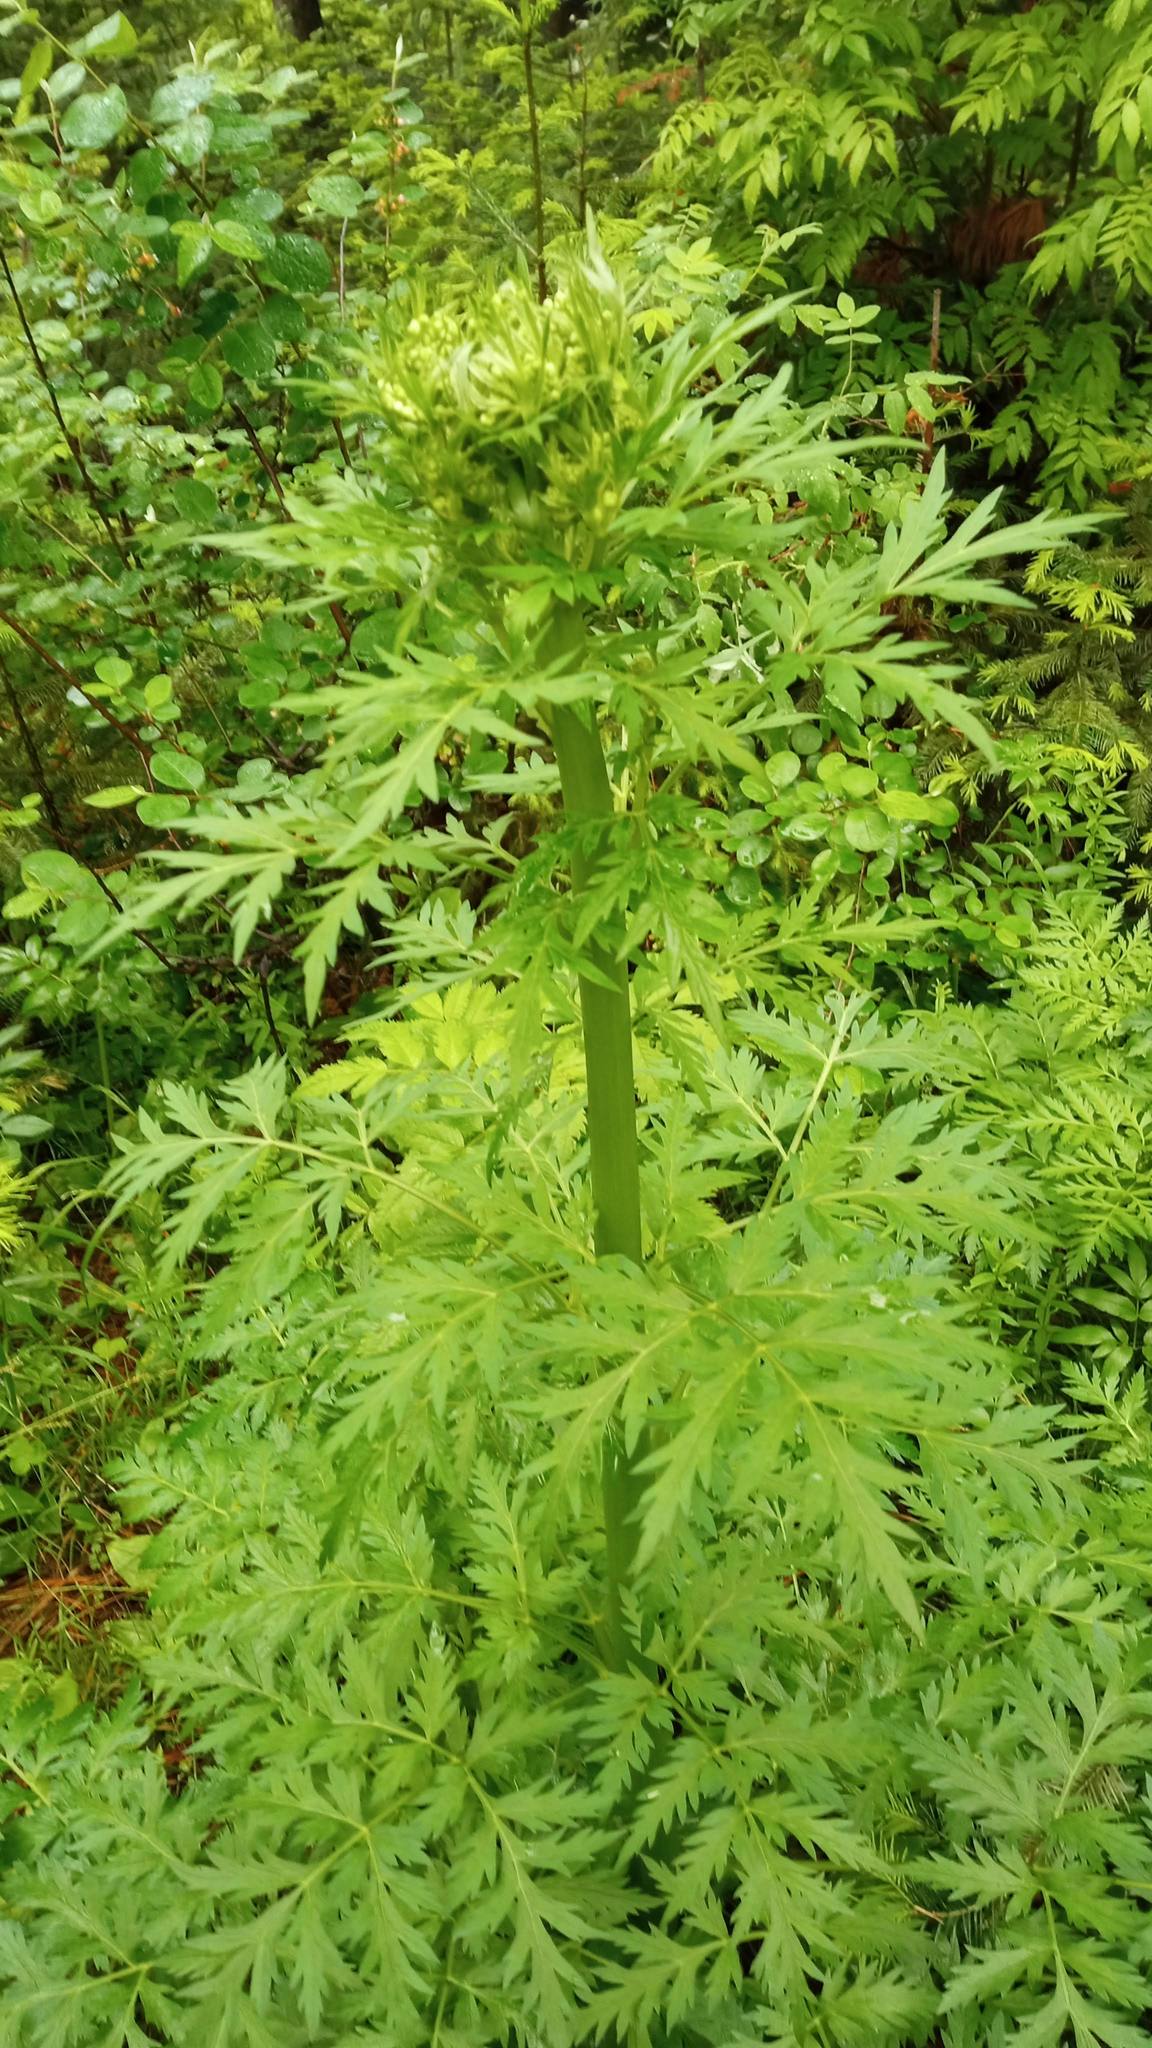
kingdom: Plantae
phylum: Tracheophyta
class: Magnoliopsida
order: Apiales
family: Apiaceae
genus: Pleurospermum
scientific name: Pleurospermum uralense
